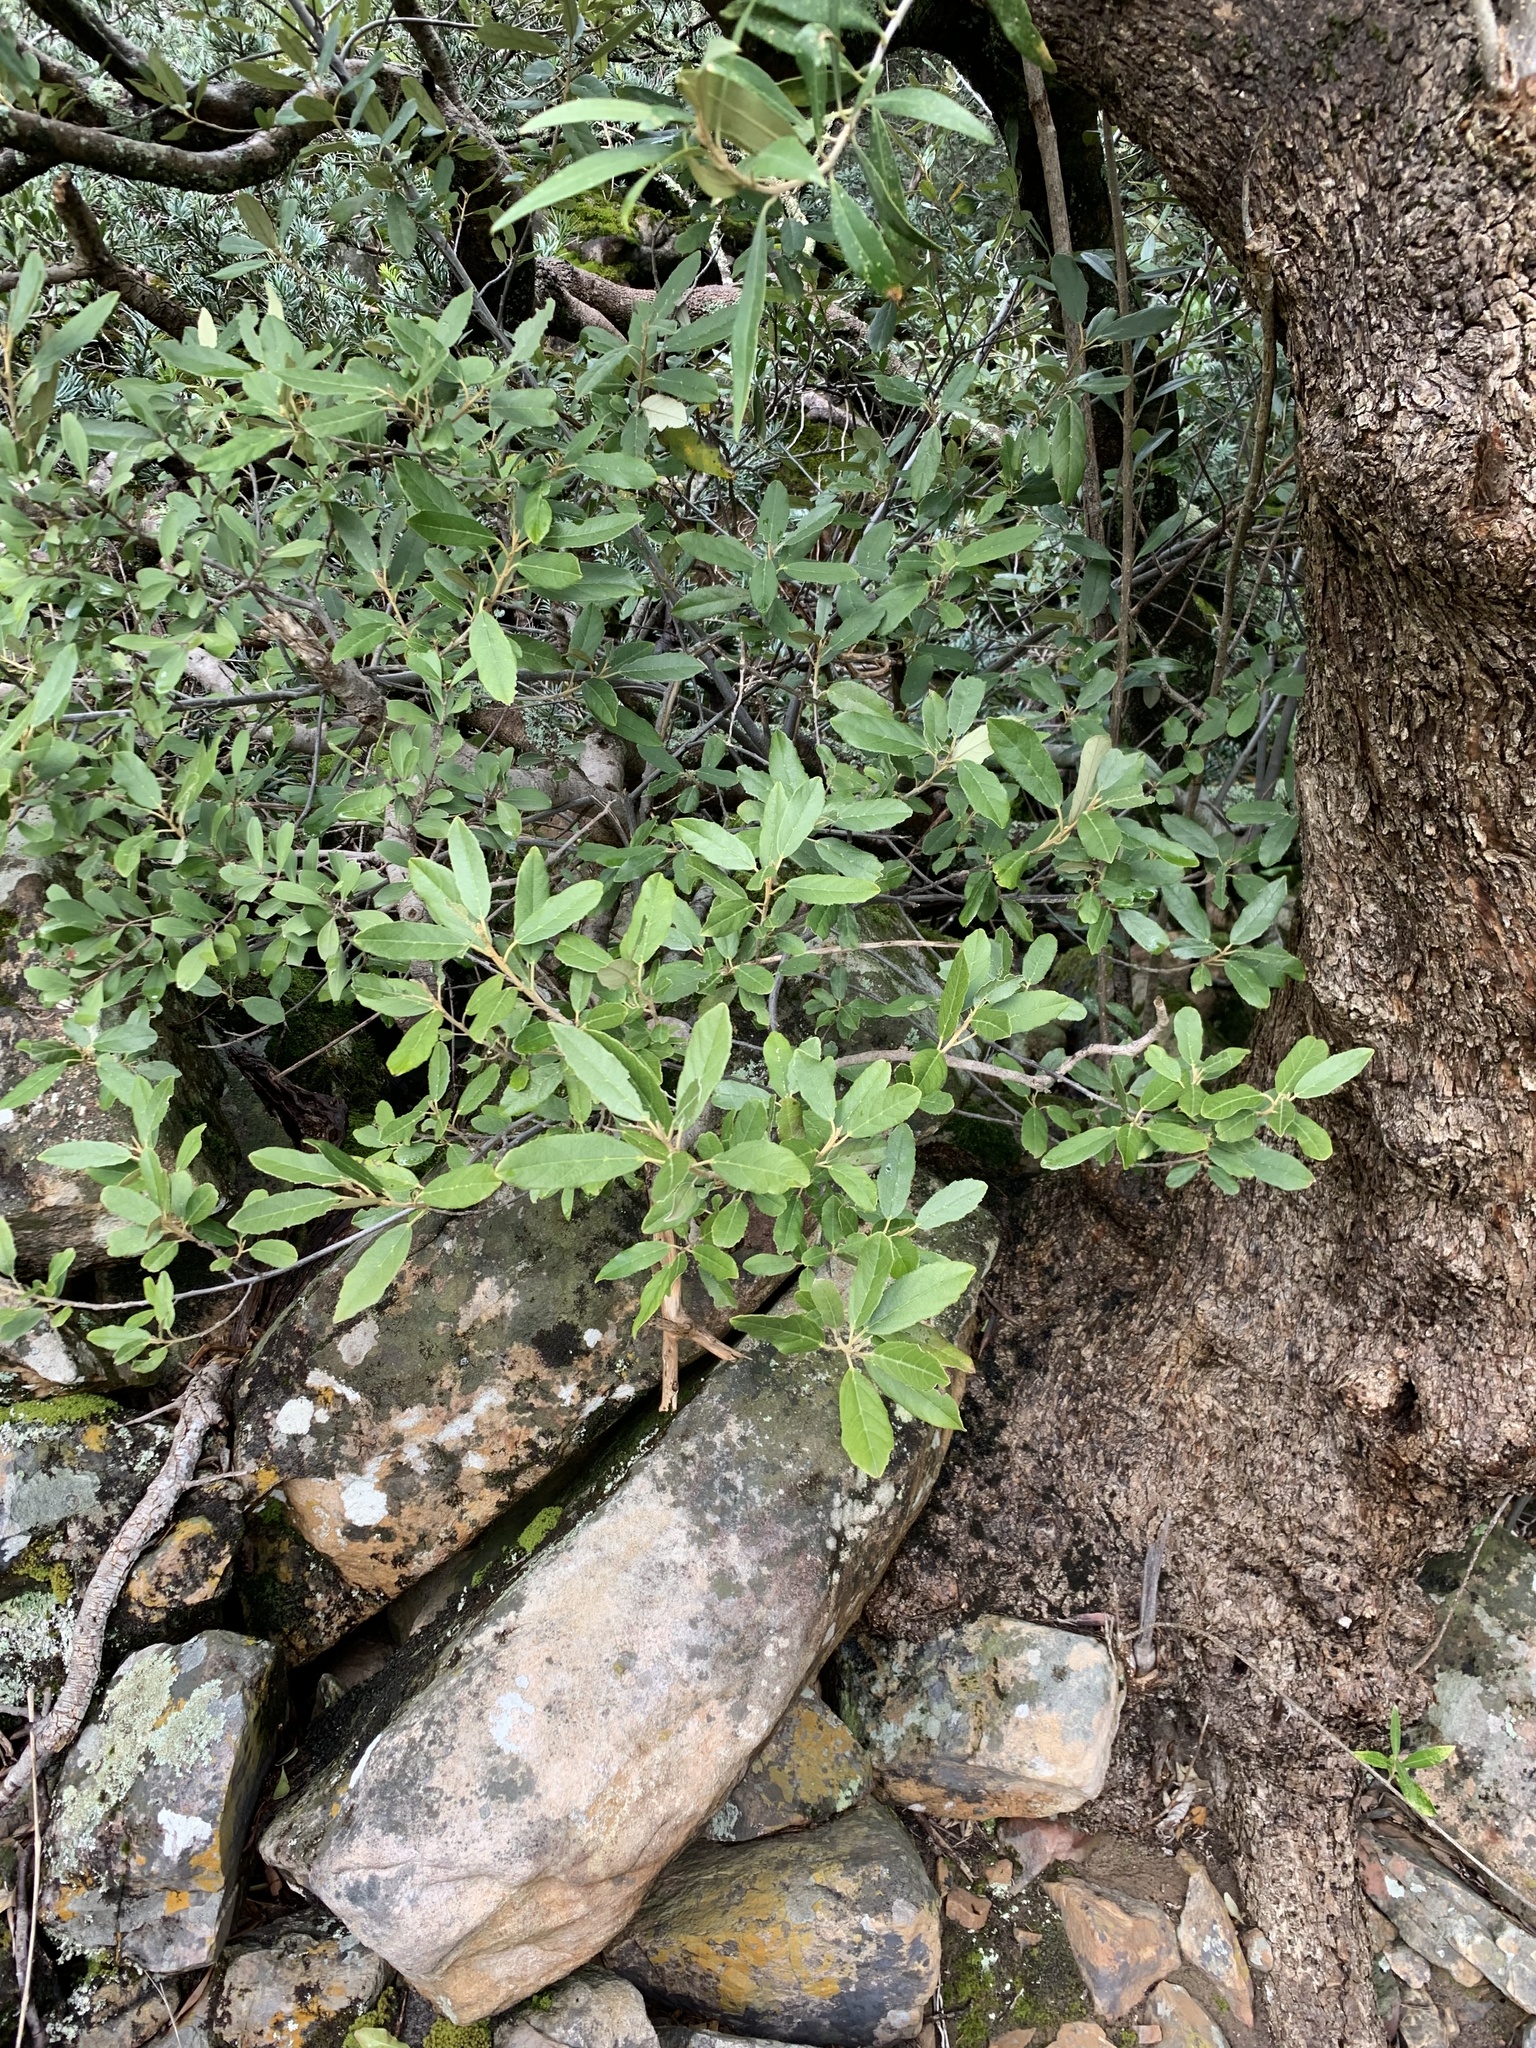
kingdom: Plantae
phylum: Tracheophyta
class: Magnoliopsida
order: Malpighiales
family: Achariaceae
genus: Kiggelaria
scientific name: Kiggelaria africana
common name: Wild peach
